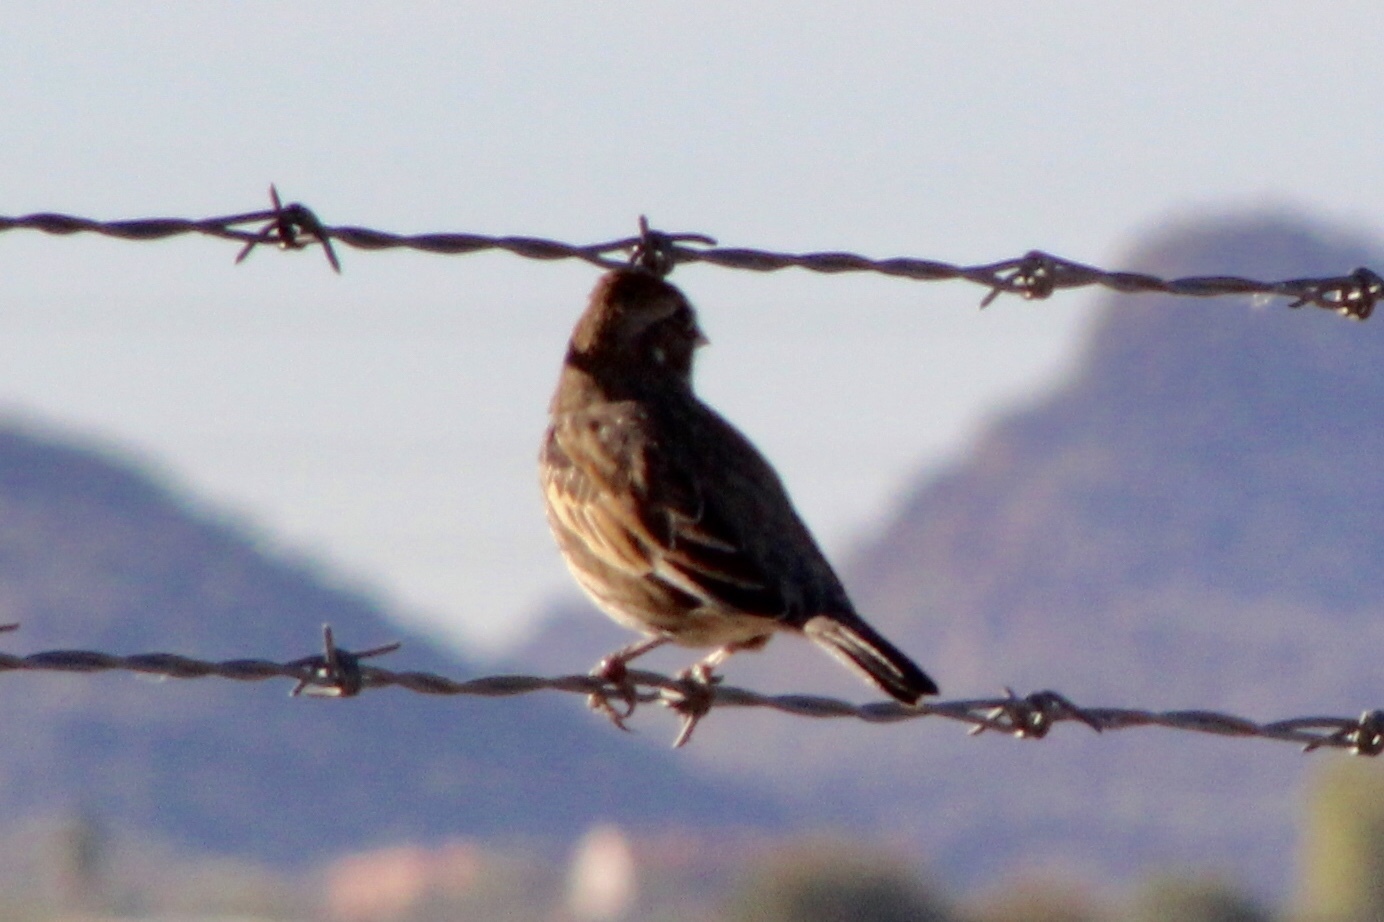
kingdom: Animalia
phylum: Chordata
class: Aves
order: Passeriformes
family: Passerellidae
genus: Calamospiza
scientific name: Calamospiza melanocorys
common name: Lark bunting
